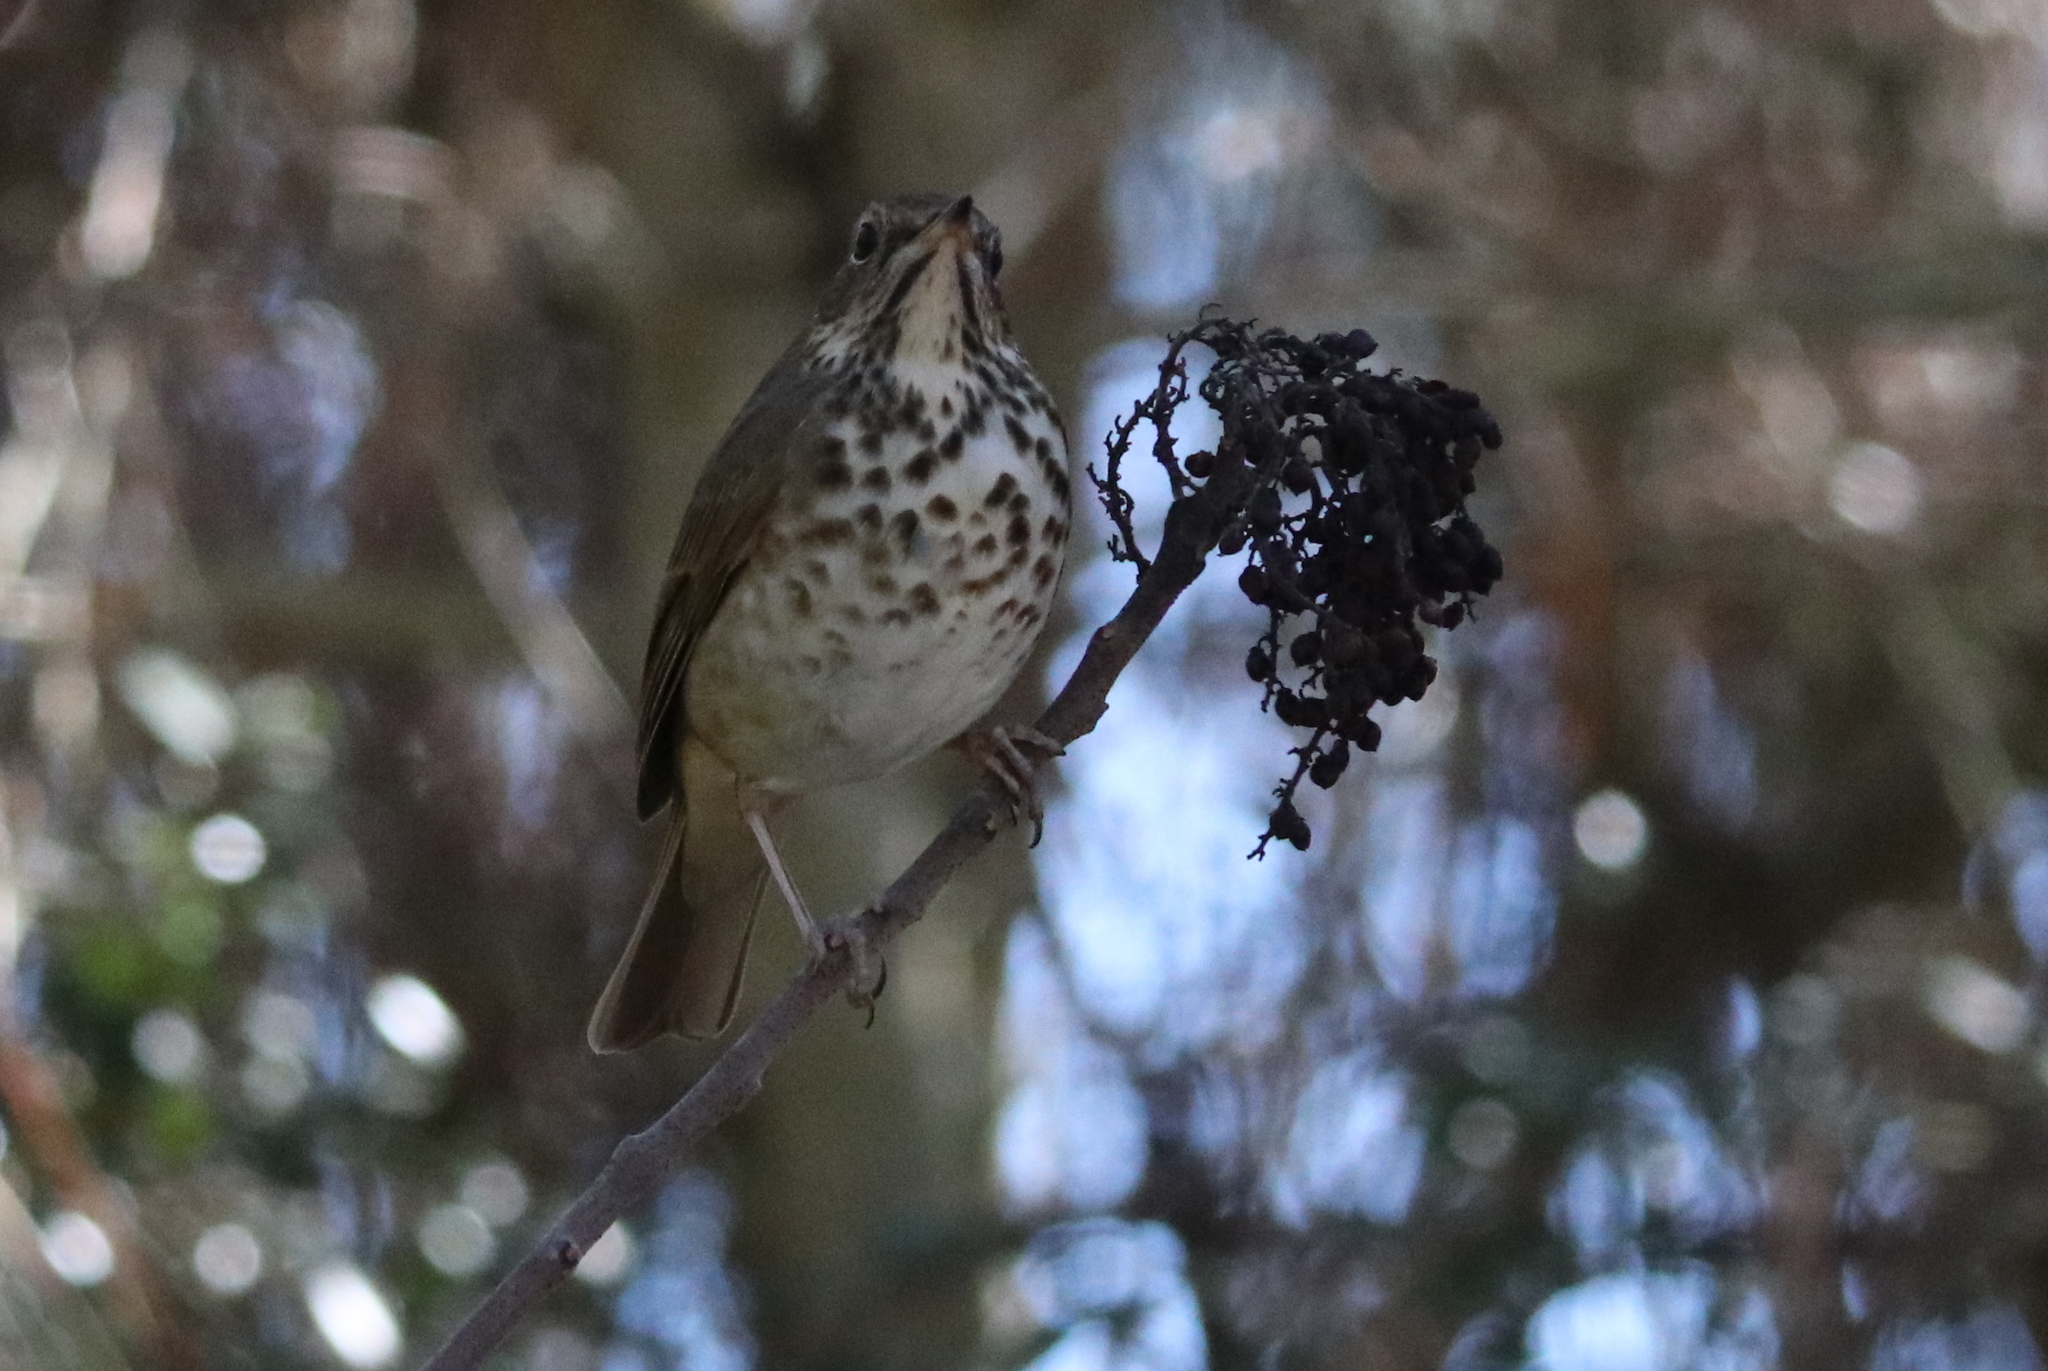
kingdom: Animalia
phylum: Chordata
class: Aves
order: Passeriformes
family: Turdidae
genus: Catharus
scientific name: Catharus guttatus
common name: Hermit thrush
